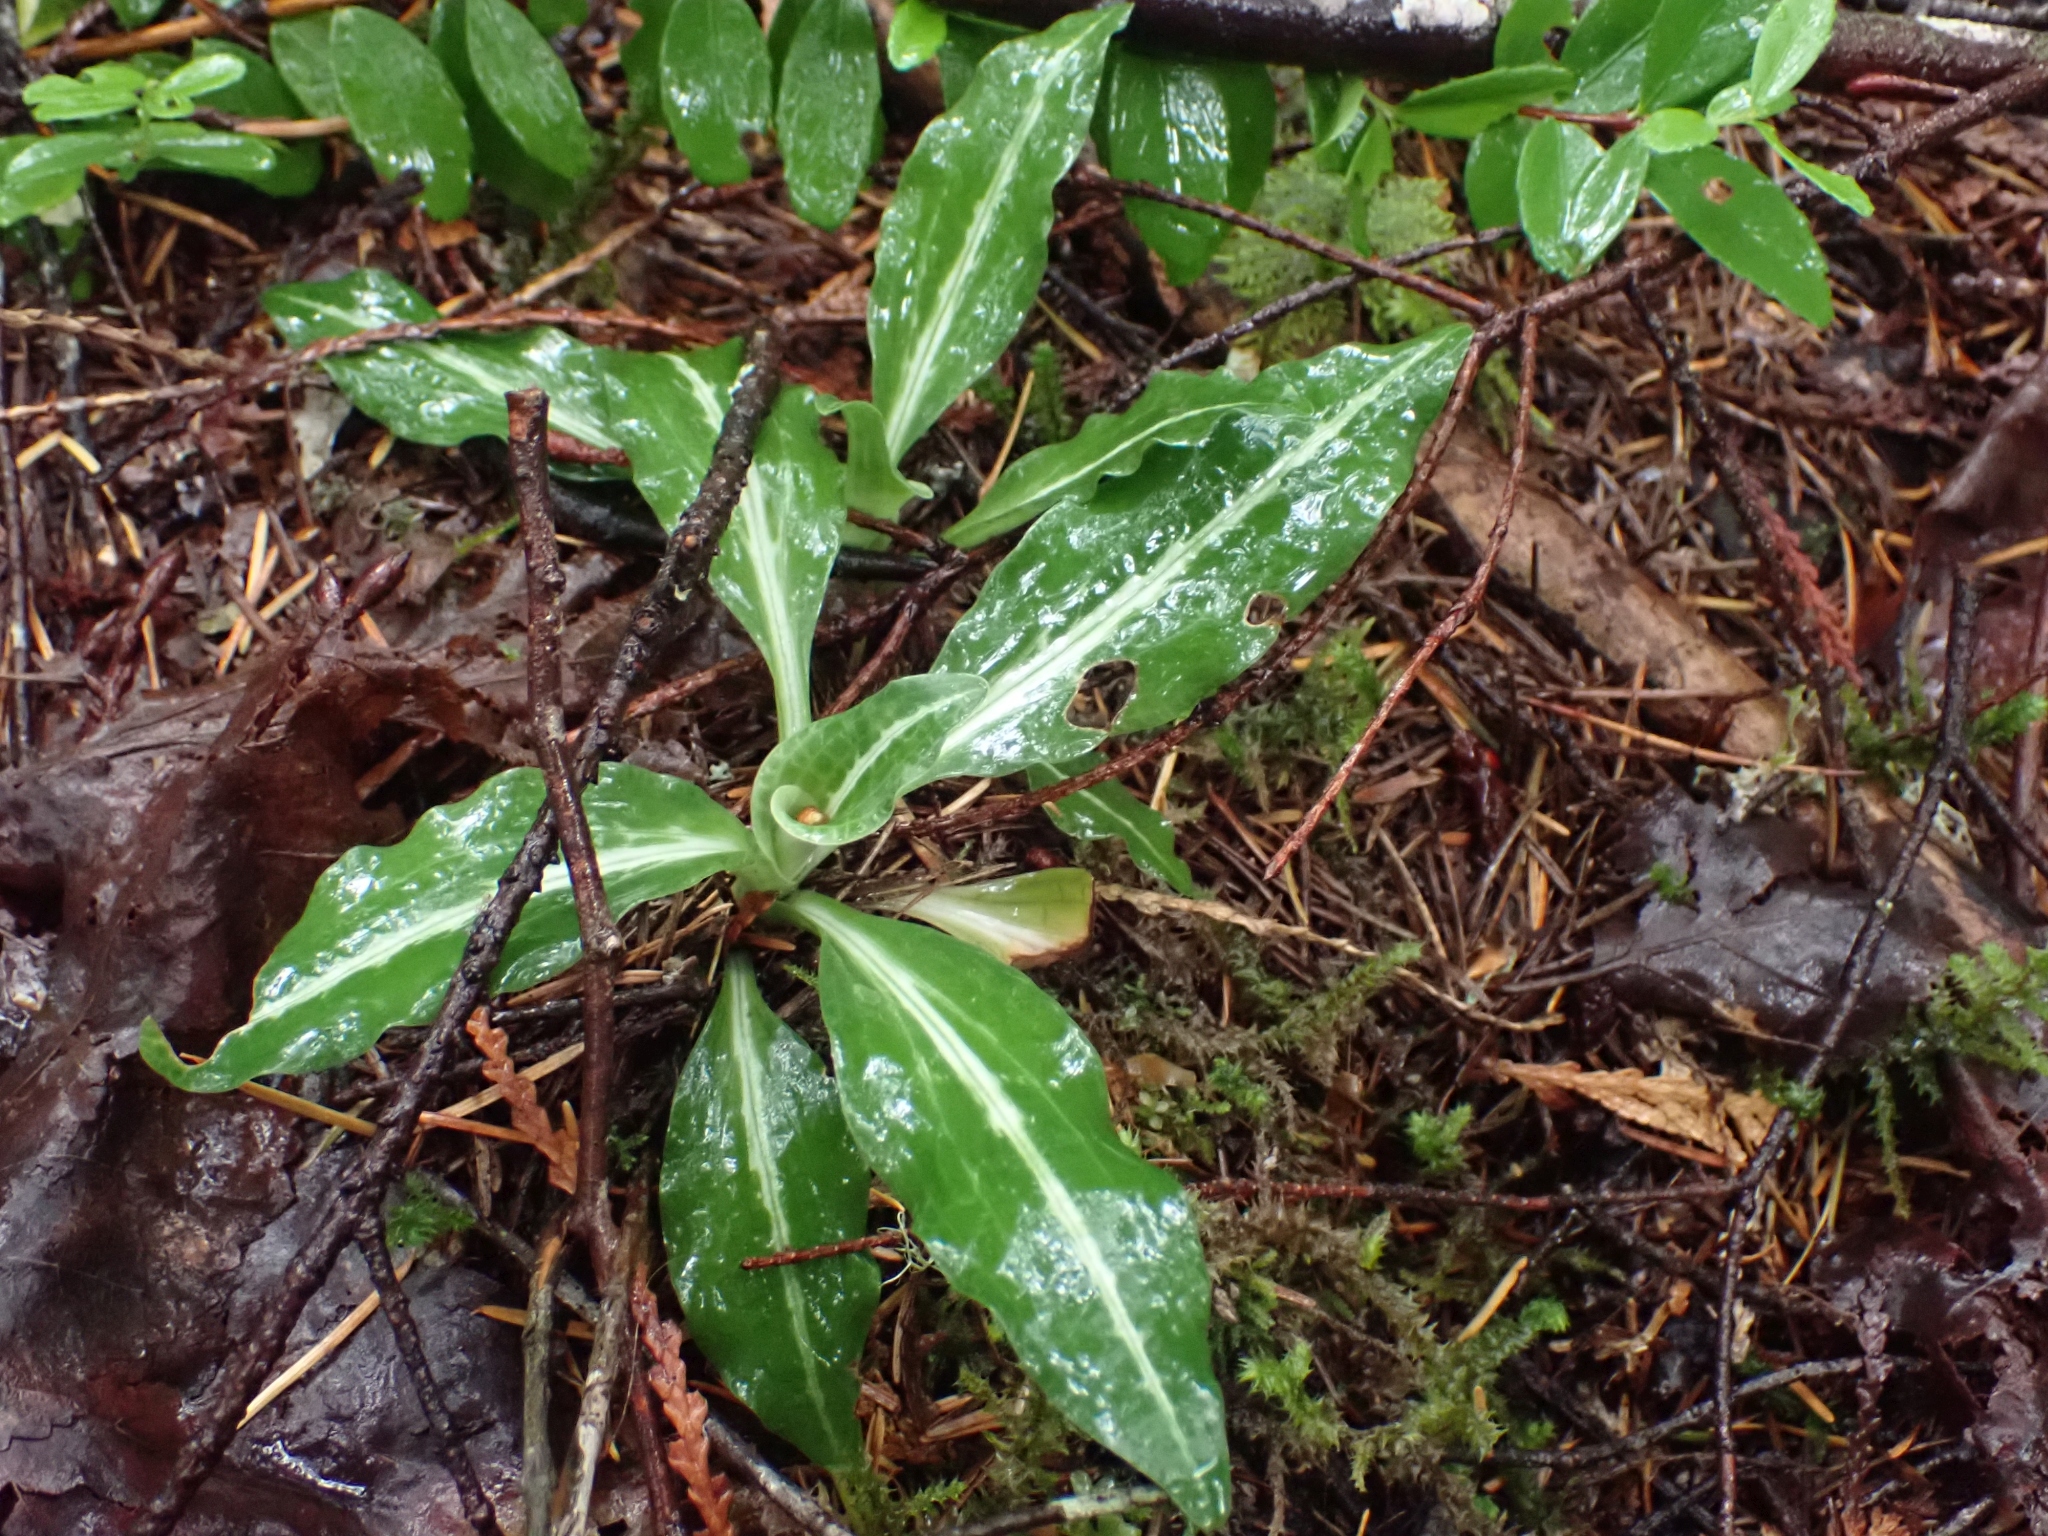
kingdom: Plantae
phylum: Tracheophyta
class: Liliopsida
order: Asparagales
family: Orchidaceae
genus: Goodyera
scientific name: Goodyera oblongifolia
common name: Giant rattlesnake-plantain
